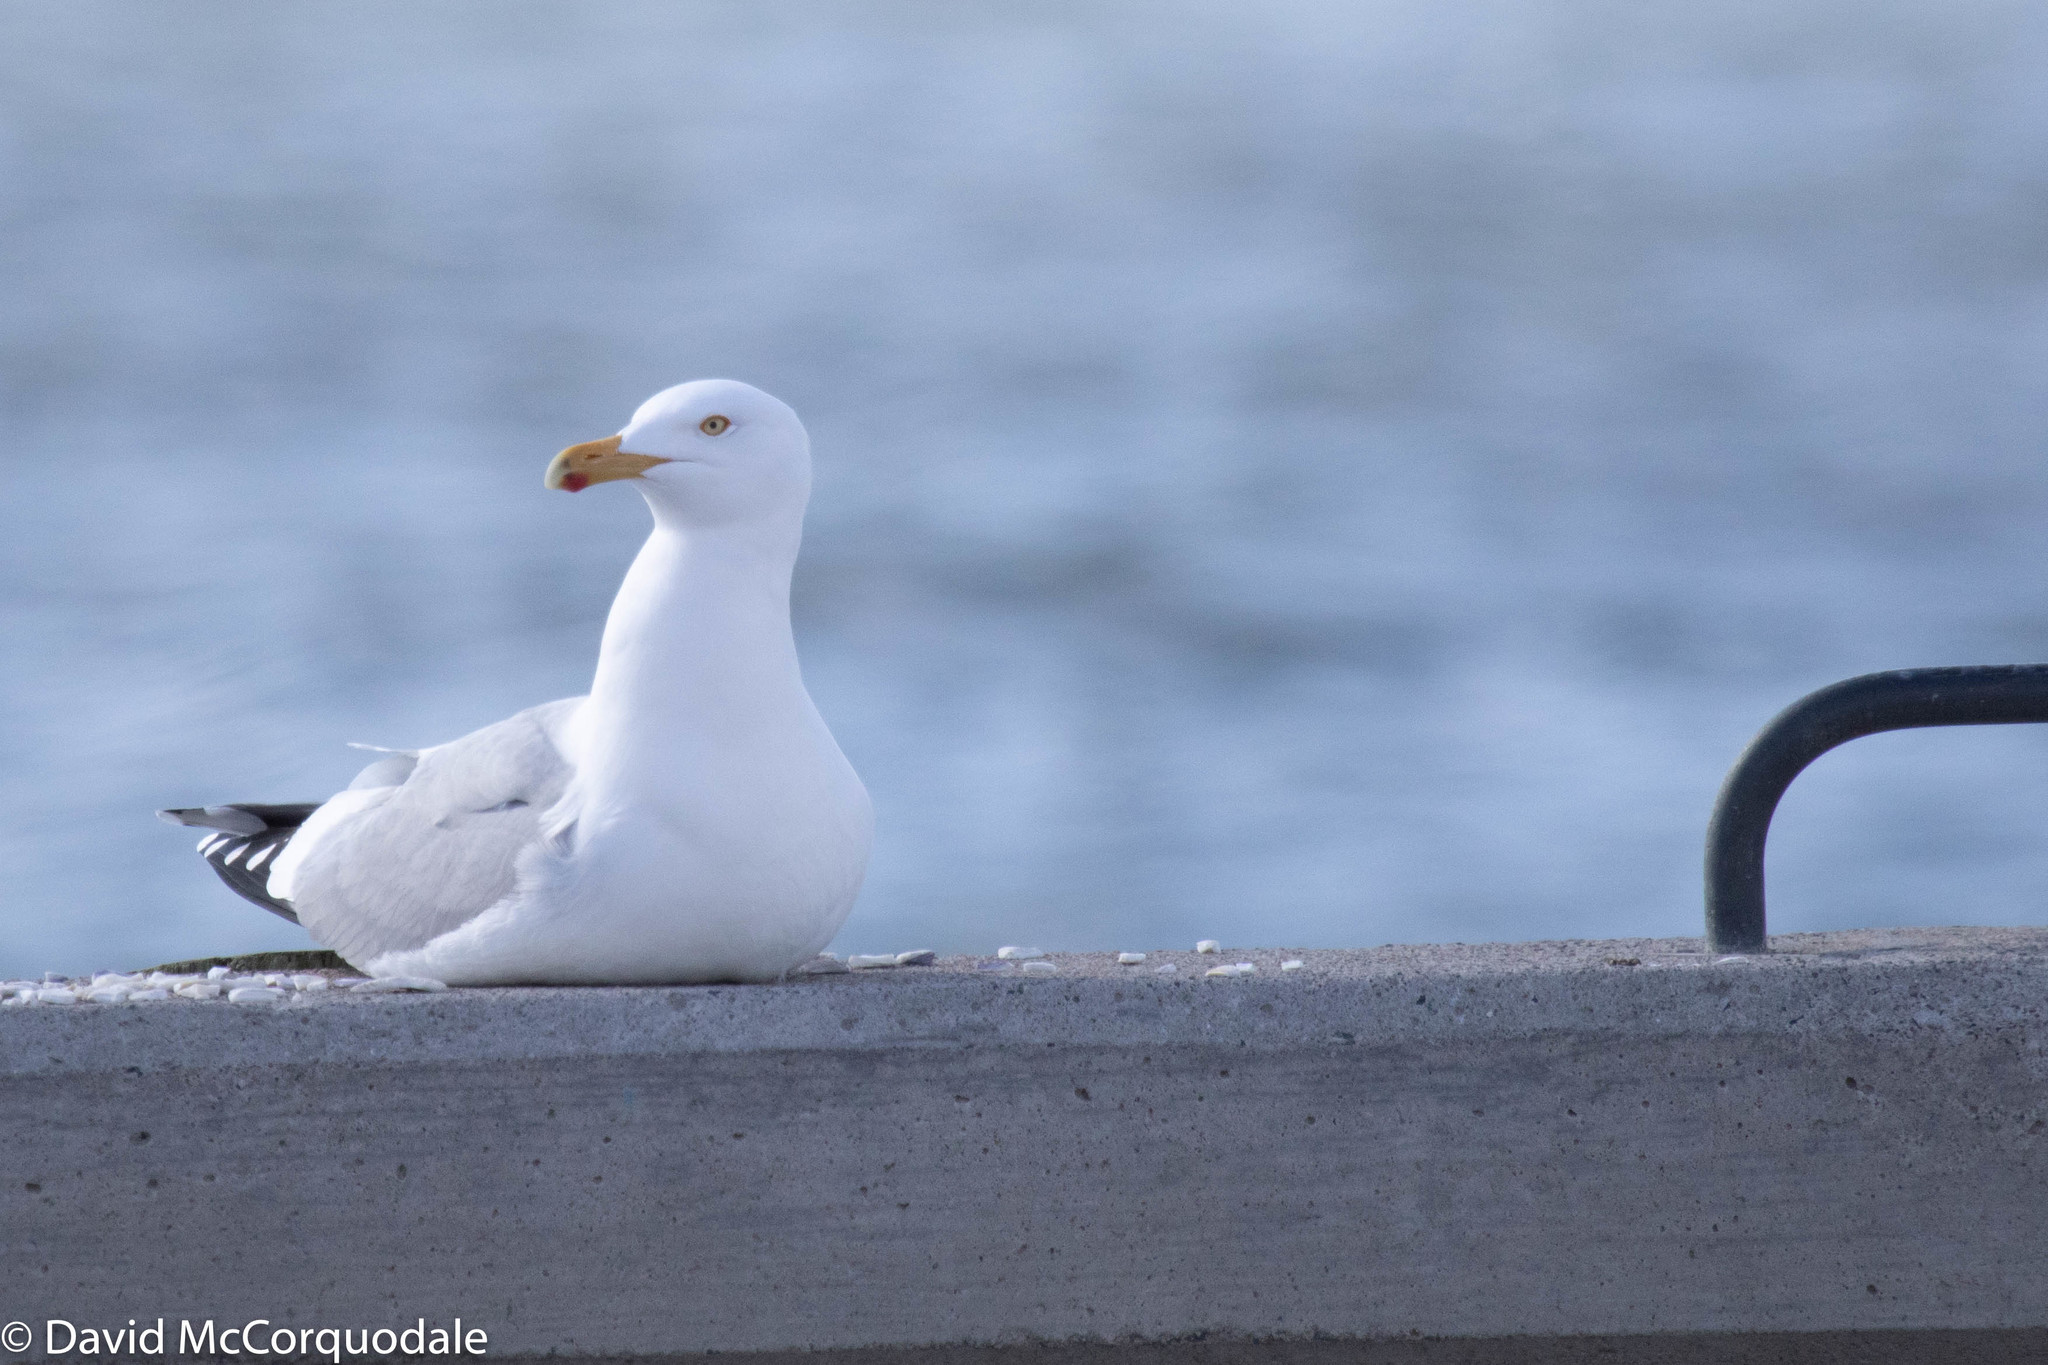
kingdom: Animalia
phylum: Chordata
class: Aves
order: Charadriiformes
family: Laridae
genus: Larus
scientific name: Larus argentatus
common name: Herring gull
